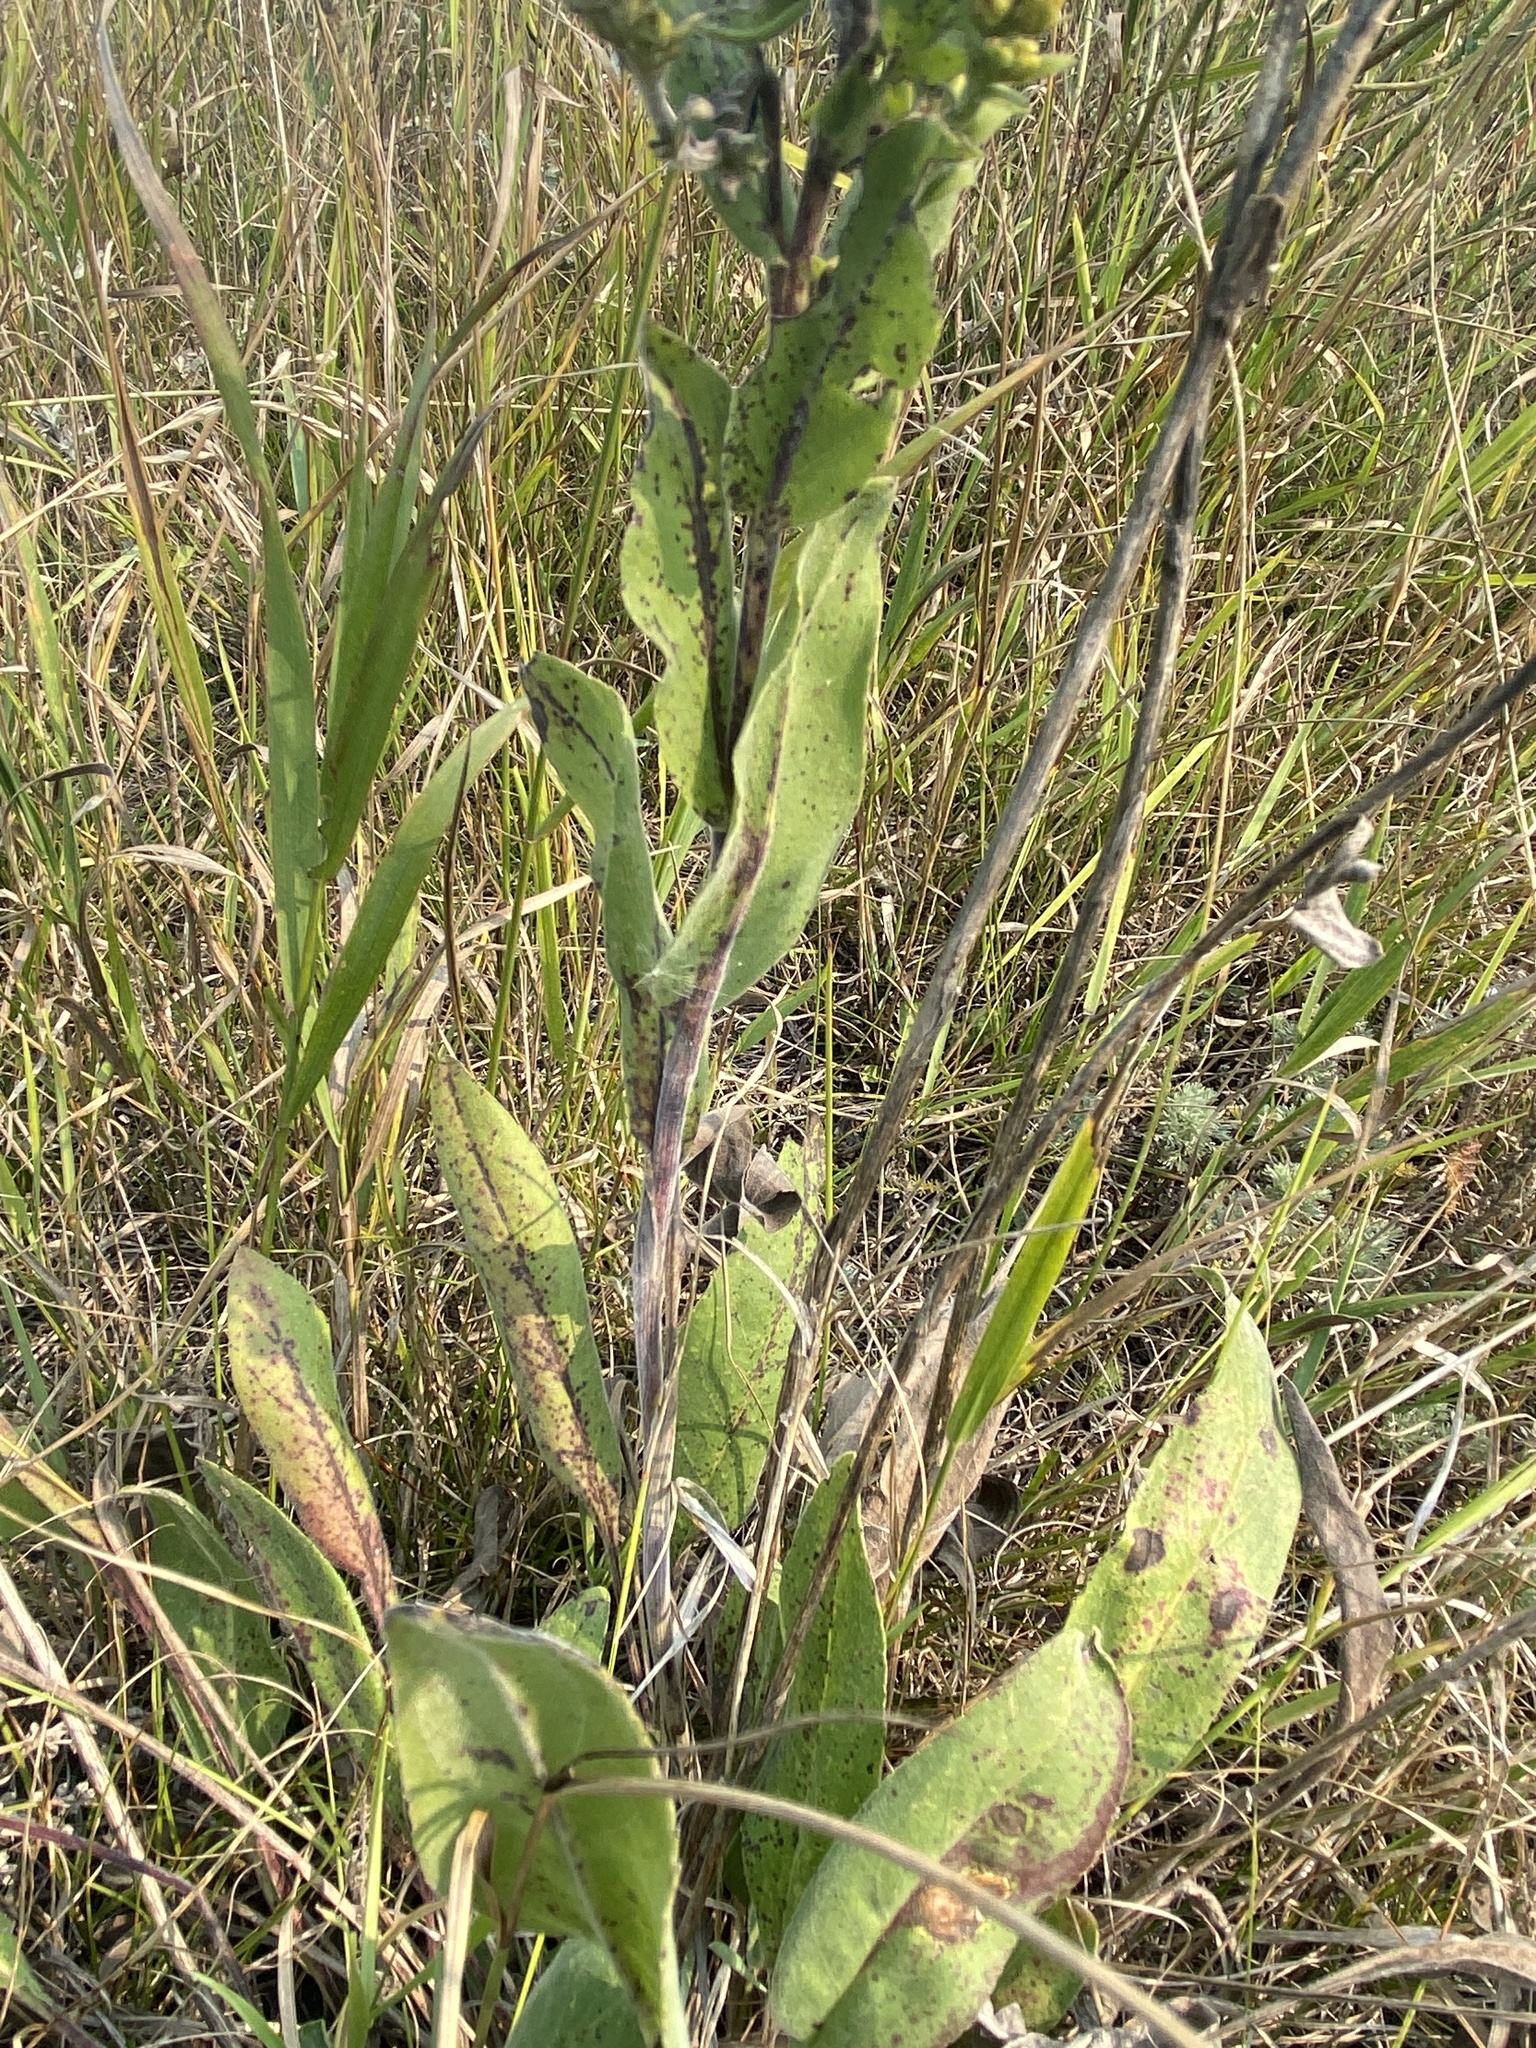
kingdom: Plantae
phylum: Tracheophyta
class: Magnoliopsida
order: Asterales
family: Asteraceae
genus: Solidago
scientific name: Solidago rigida
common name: Rigid goldenrod
